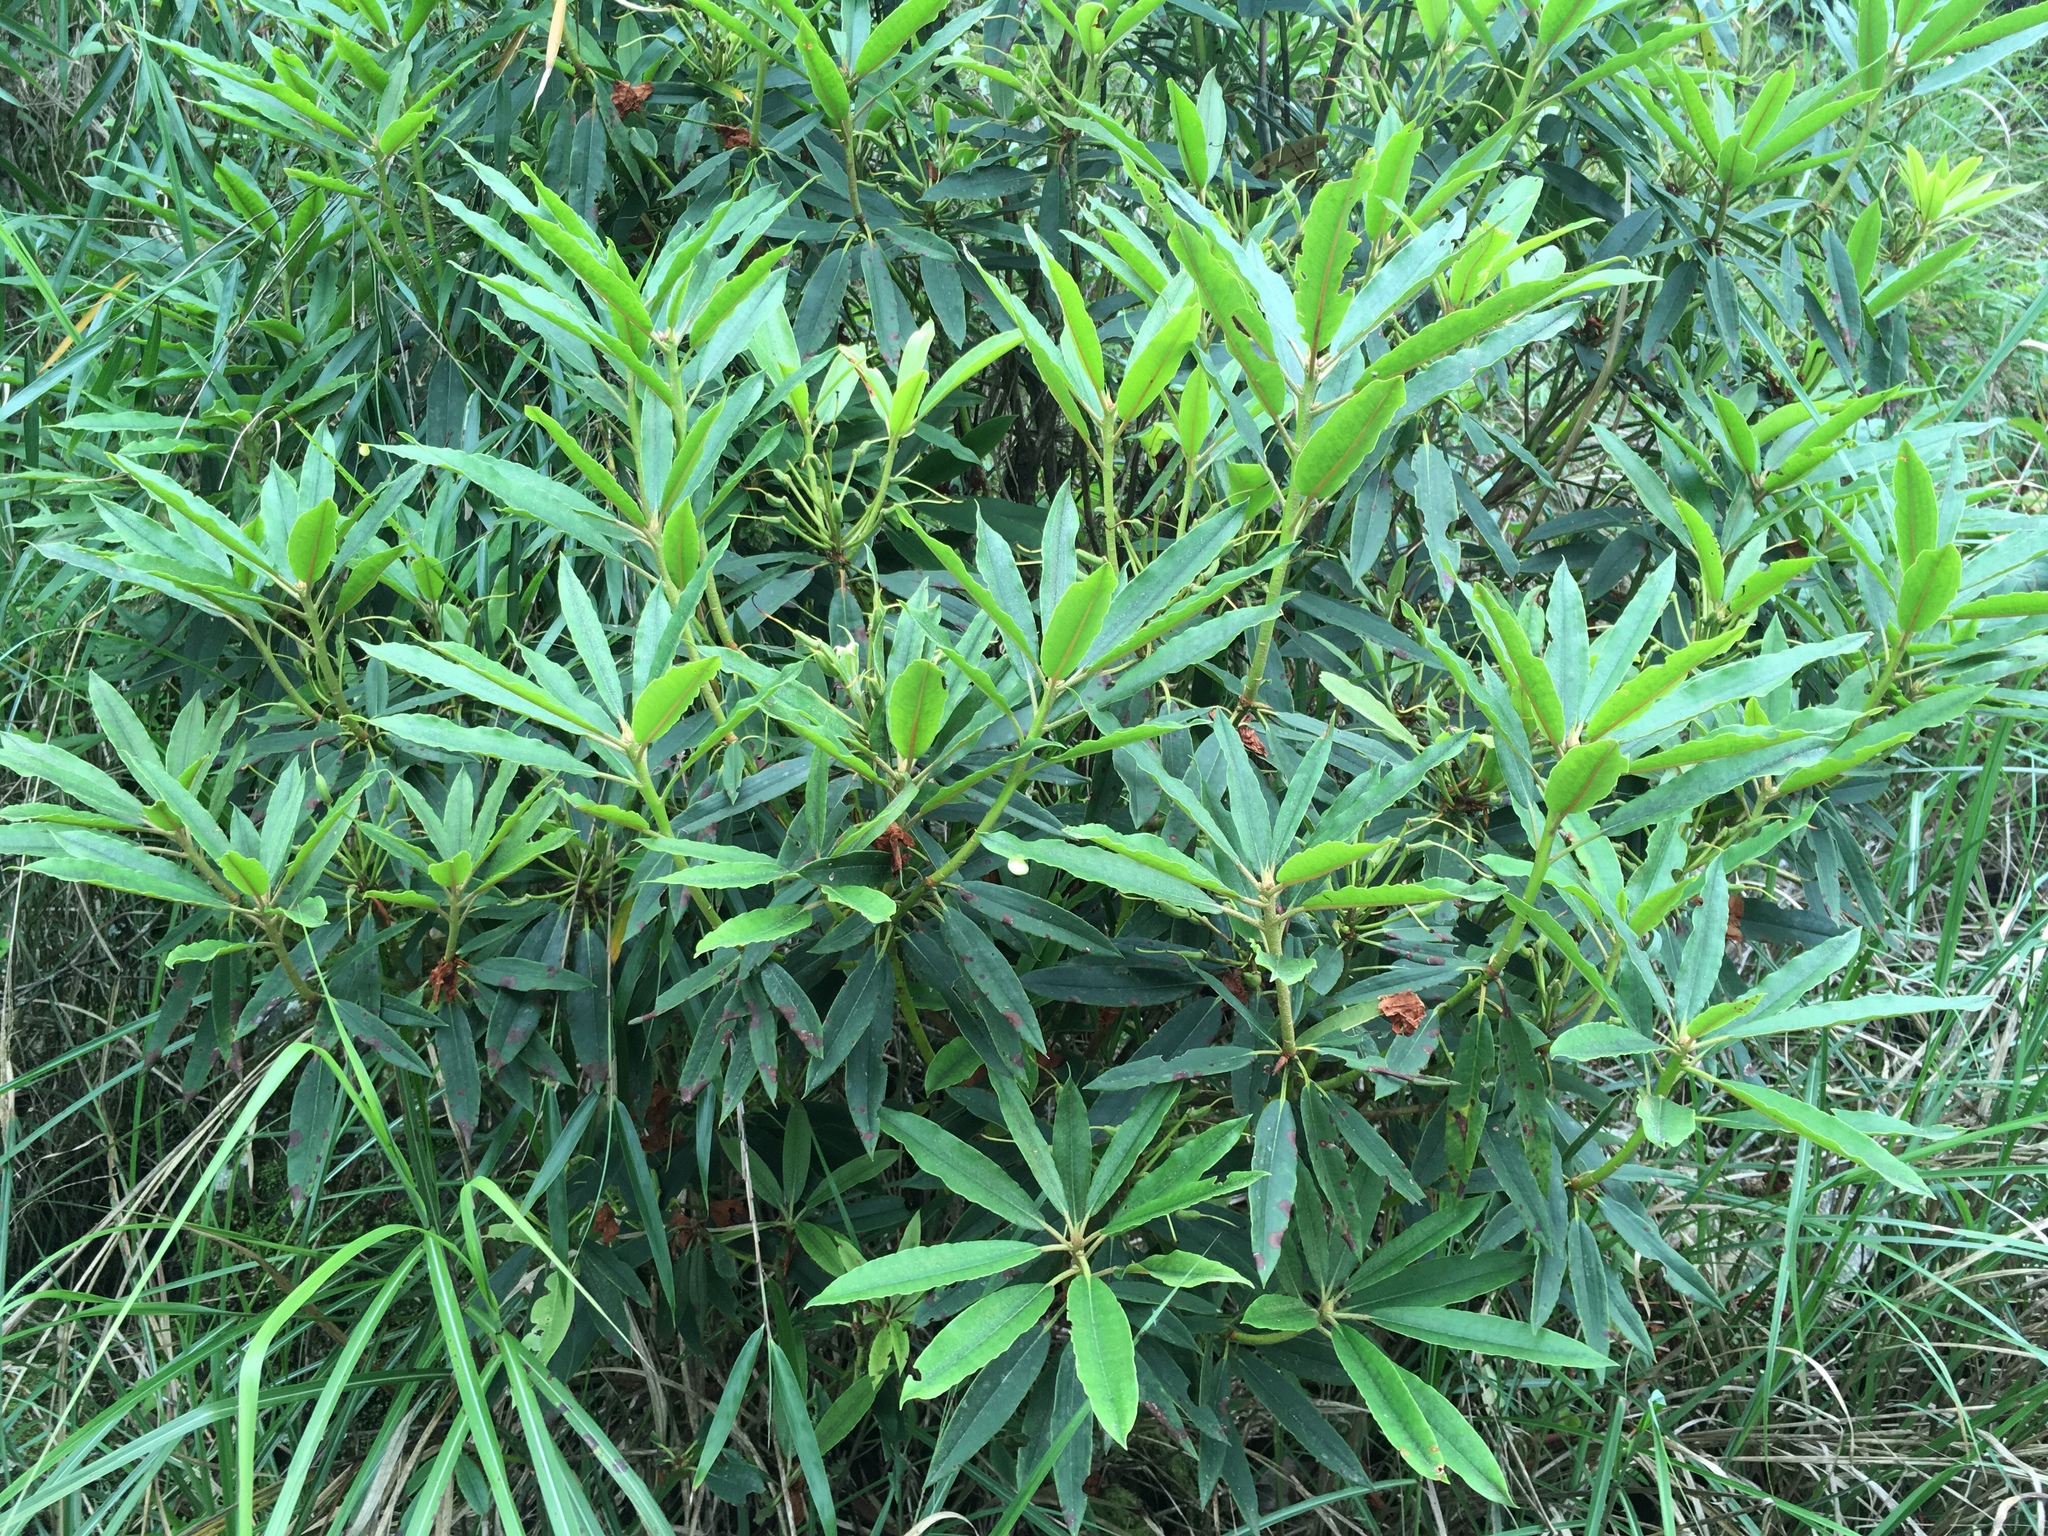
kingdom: Plantae
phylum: Tracheophyta
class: Magnoliopsida
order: Ericales
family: Ericaceae
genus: Rhododendron
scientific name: Rhododendron formosanum
